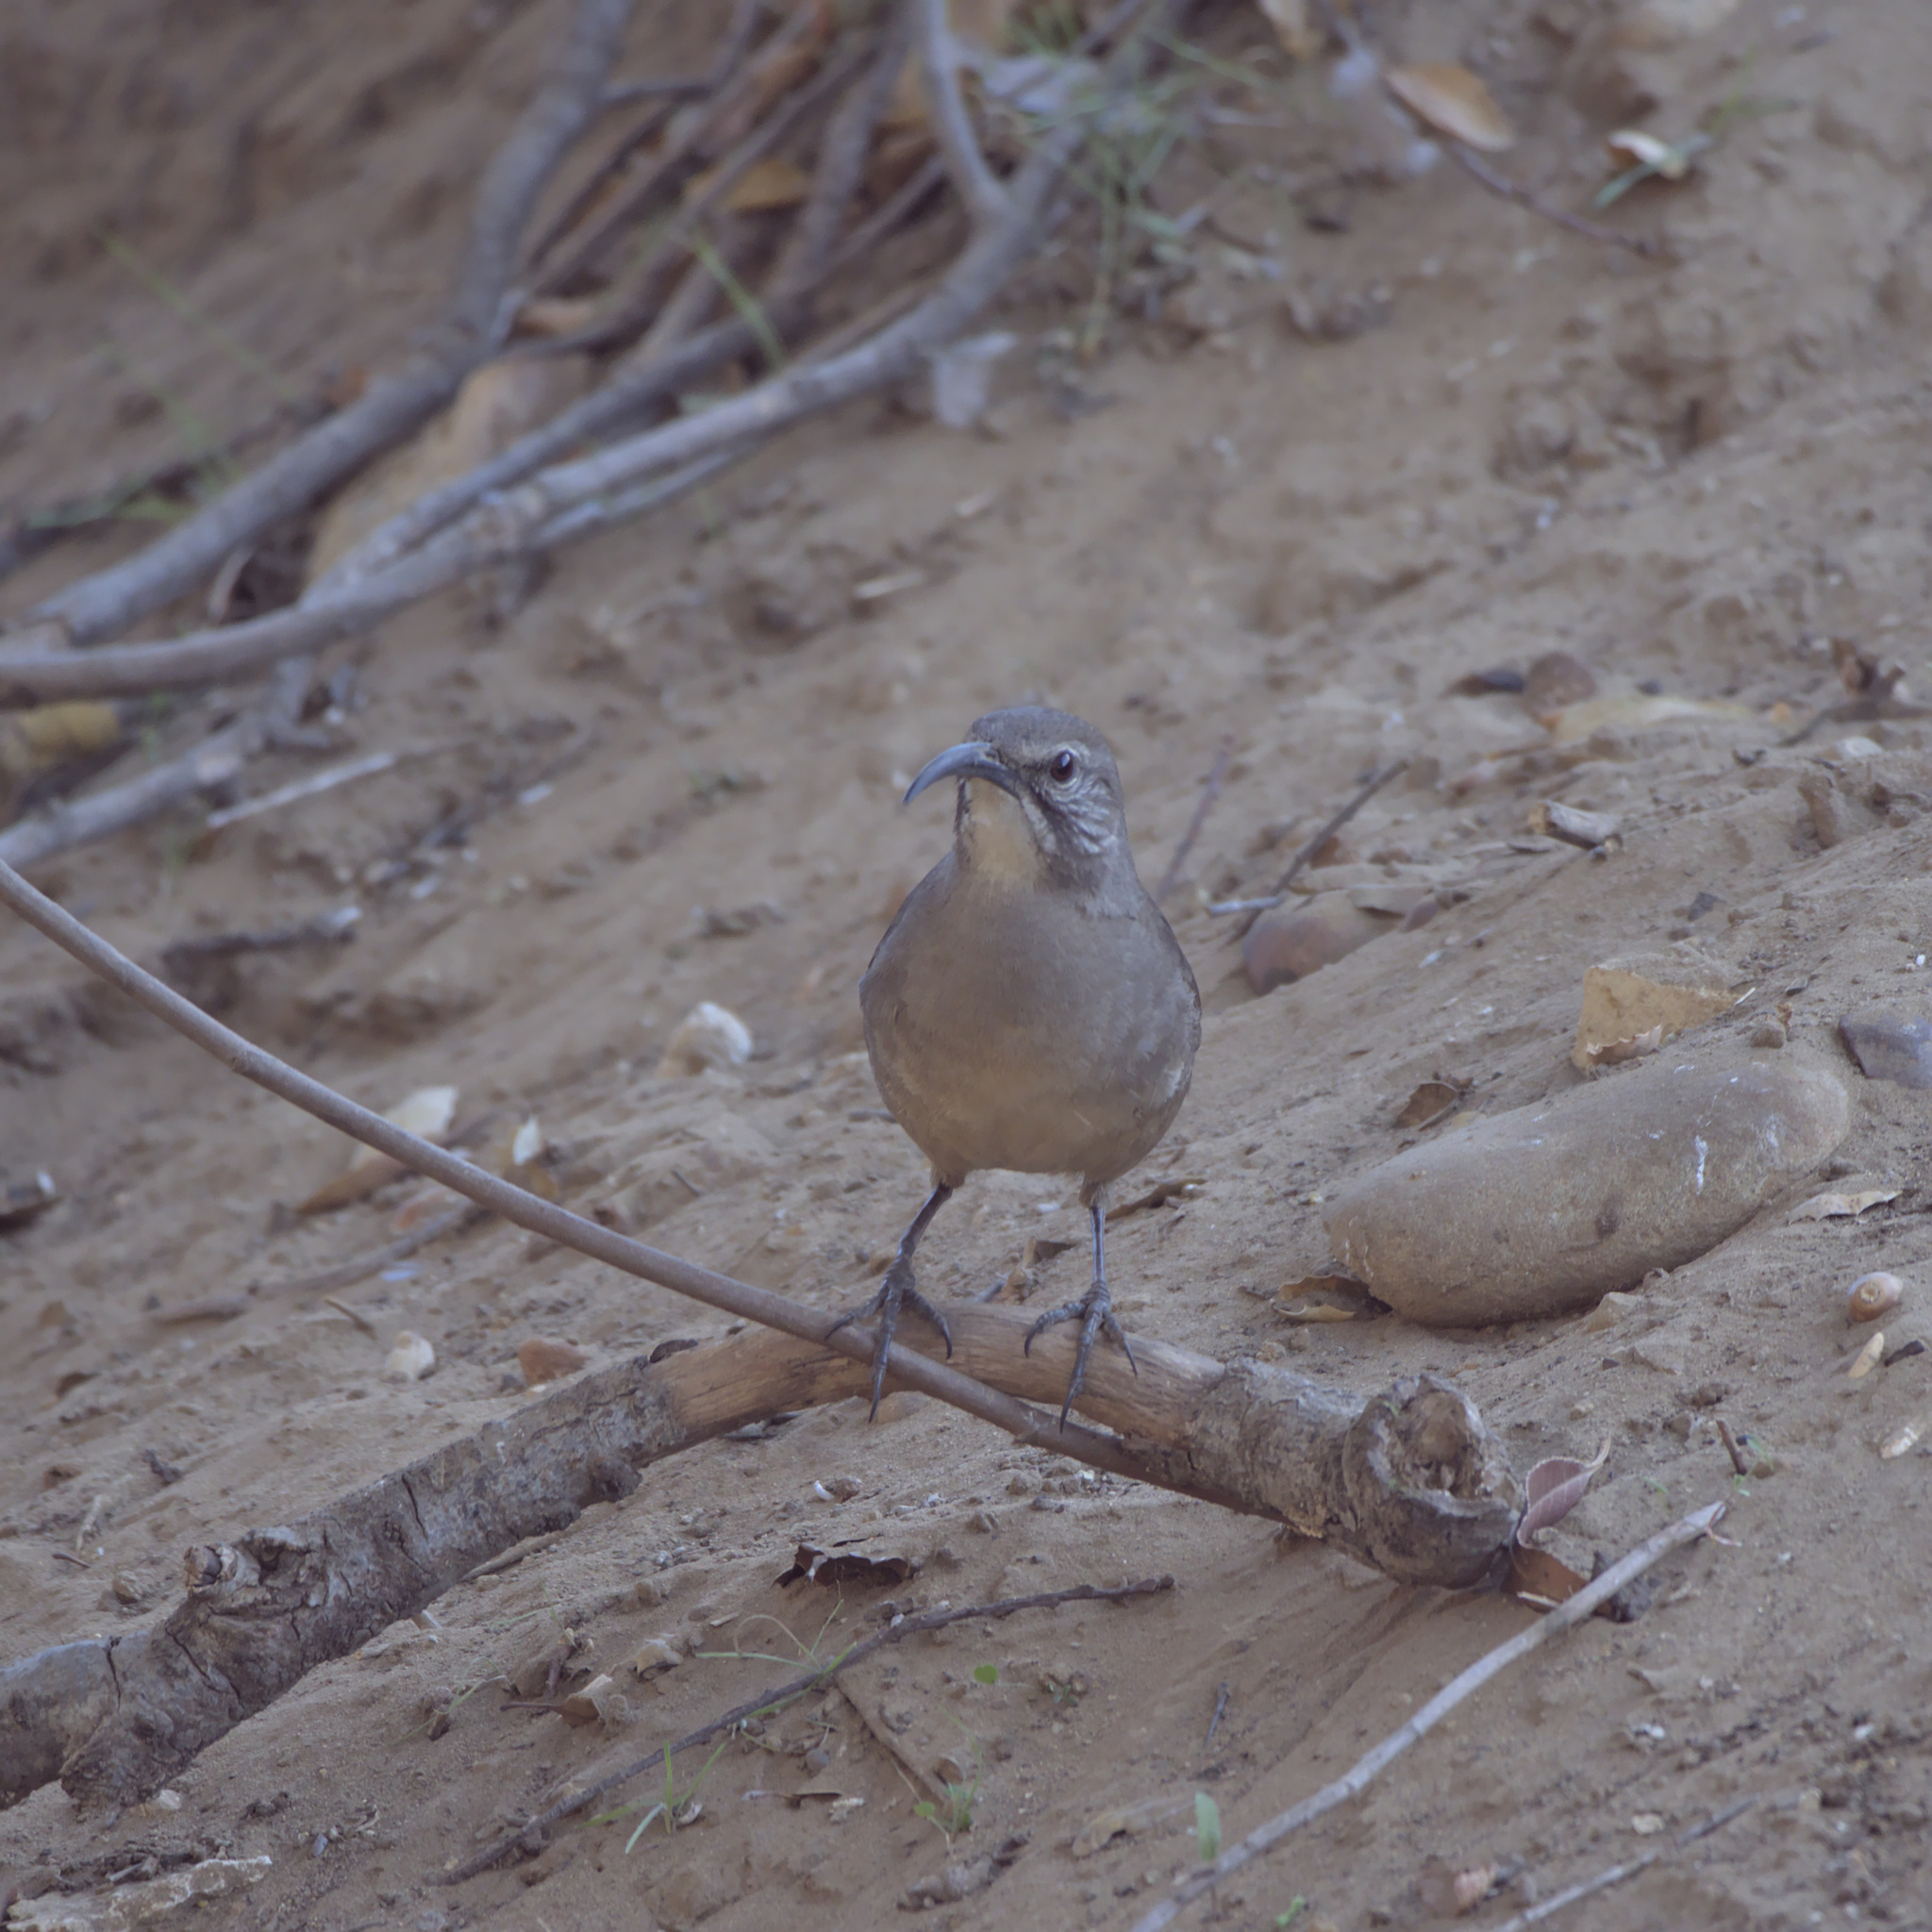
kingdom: Animalia
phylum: Chordata
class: Aves
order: Passeriformes
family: Mimidae
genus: Toxostoma
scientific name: Toxostoma redivivum
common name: California thrasher
